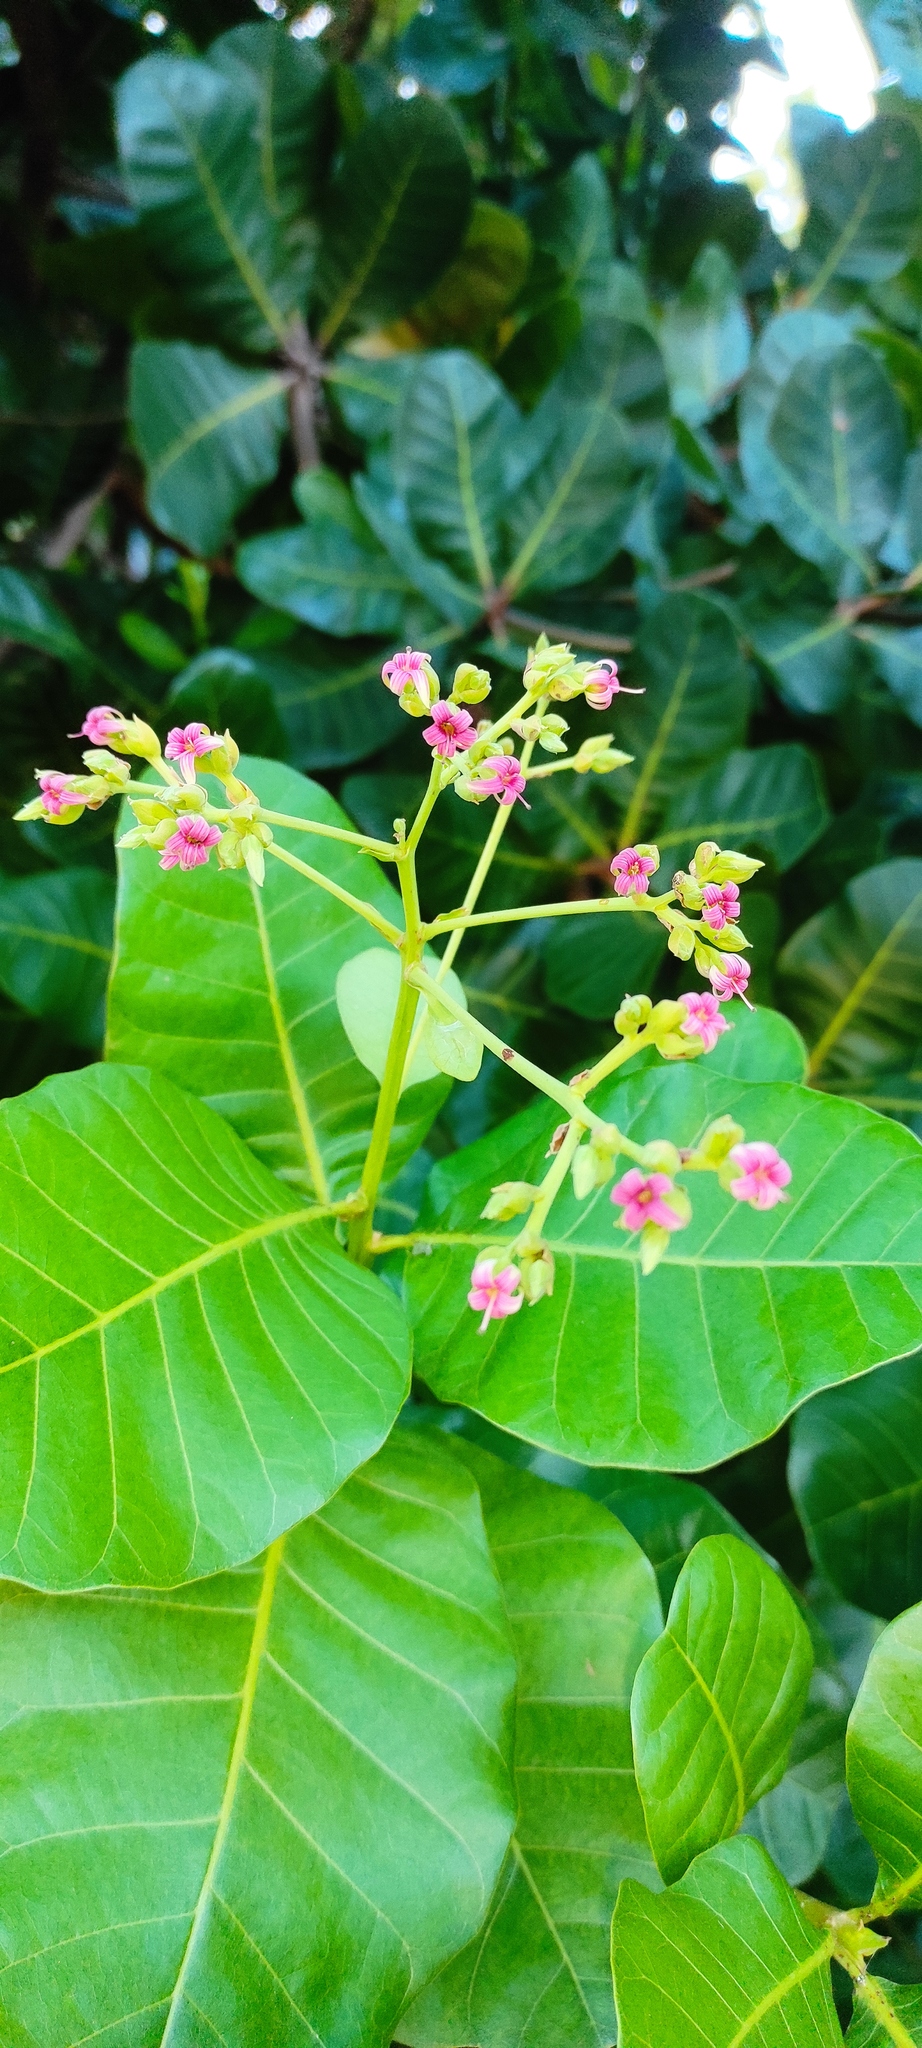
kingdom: Plantae
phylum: Tracheophyta
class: Magnoliopsida
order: Sapindales
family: Anacardiaceae
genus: Anacardium
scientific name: Anacardium occidentale
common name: Cashew
